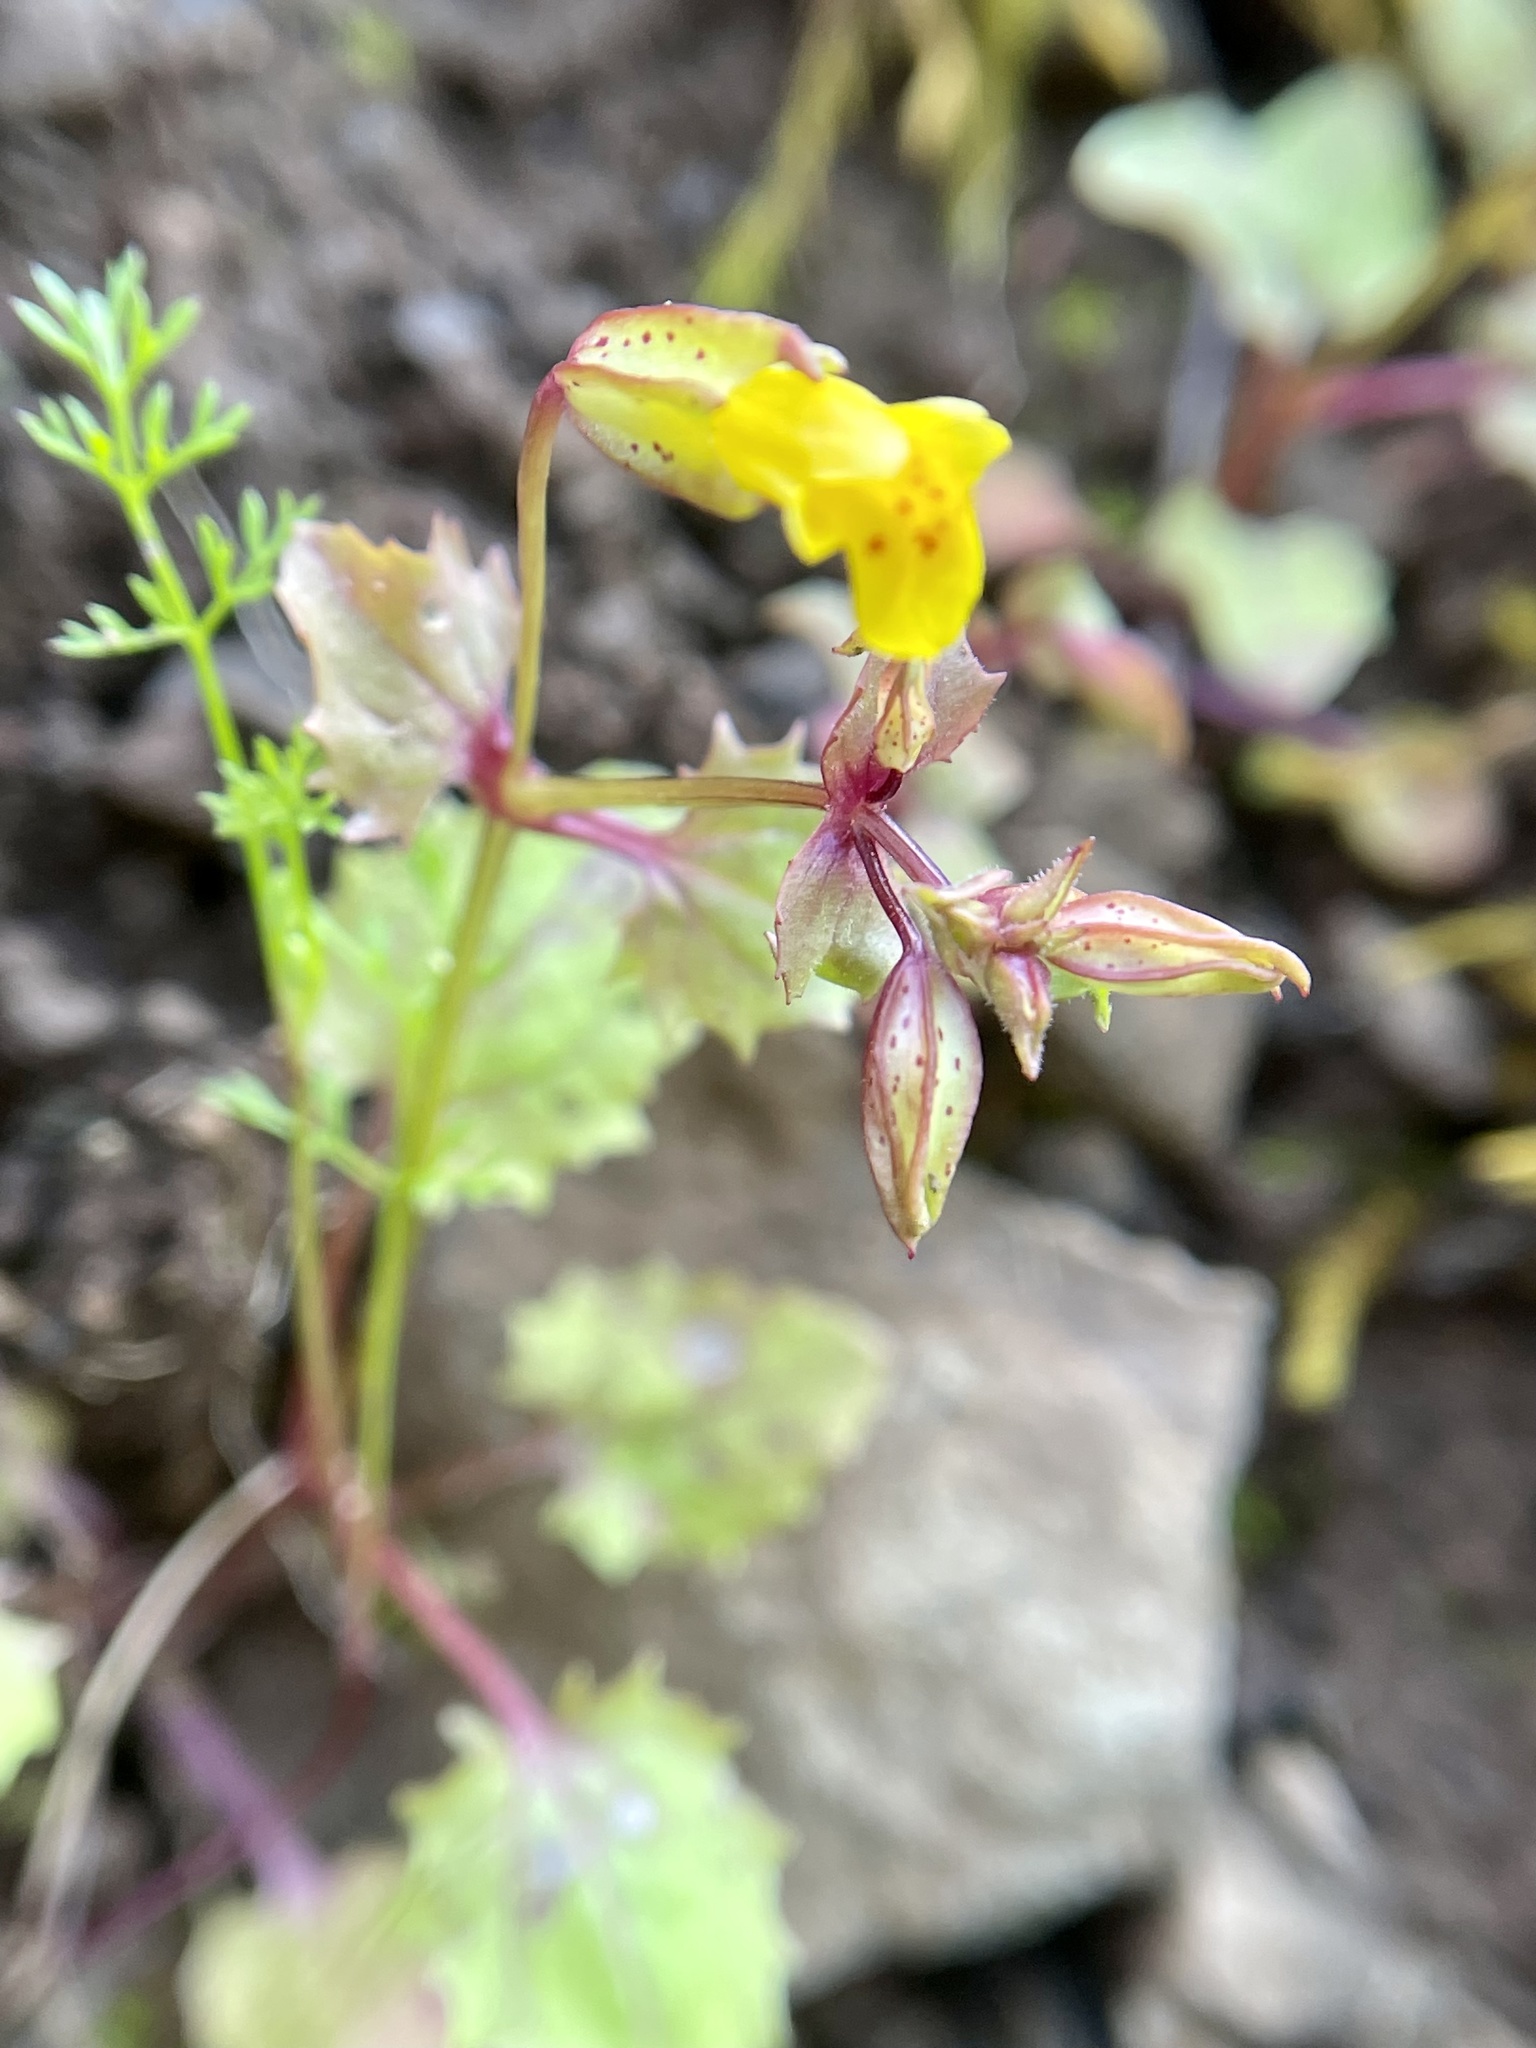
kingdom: Plantae
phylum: Tracheophyta
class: Magnoliopsida
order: Lamiales
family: Phrymaceae
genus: Erythranthe
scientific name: Erythranthe nasuta
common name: Sooke monkeyflower
